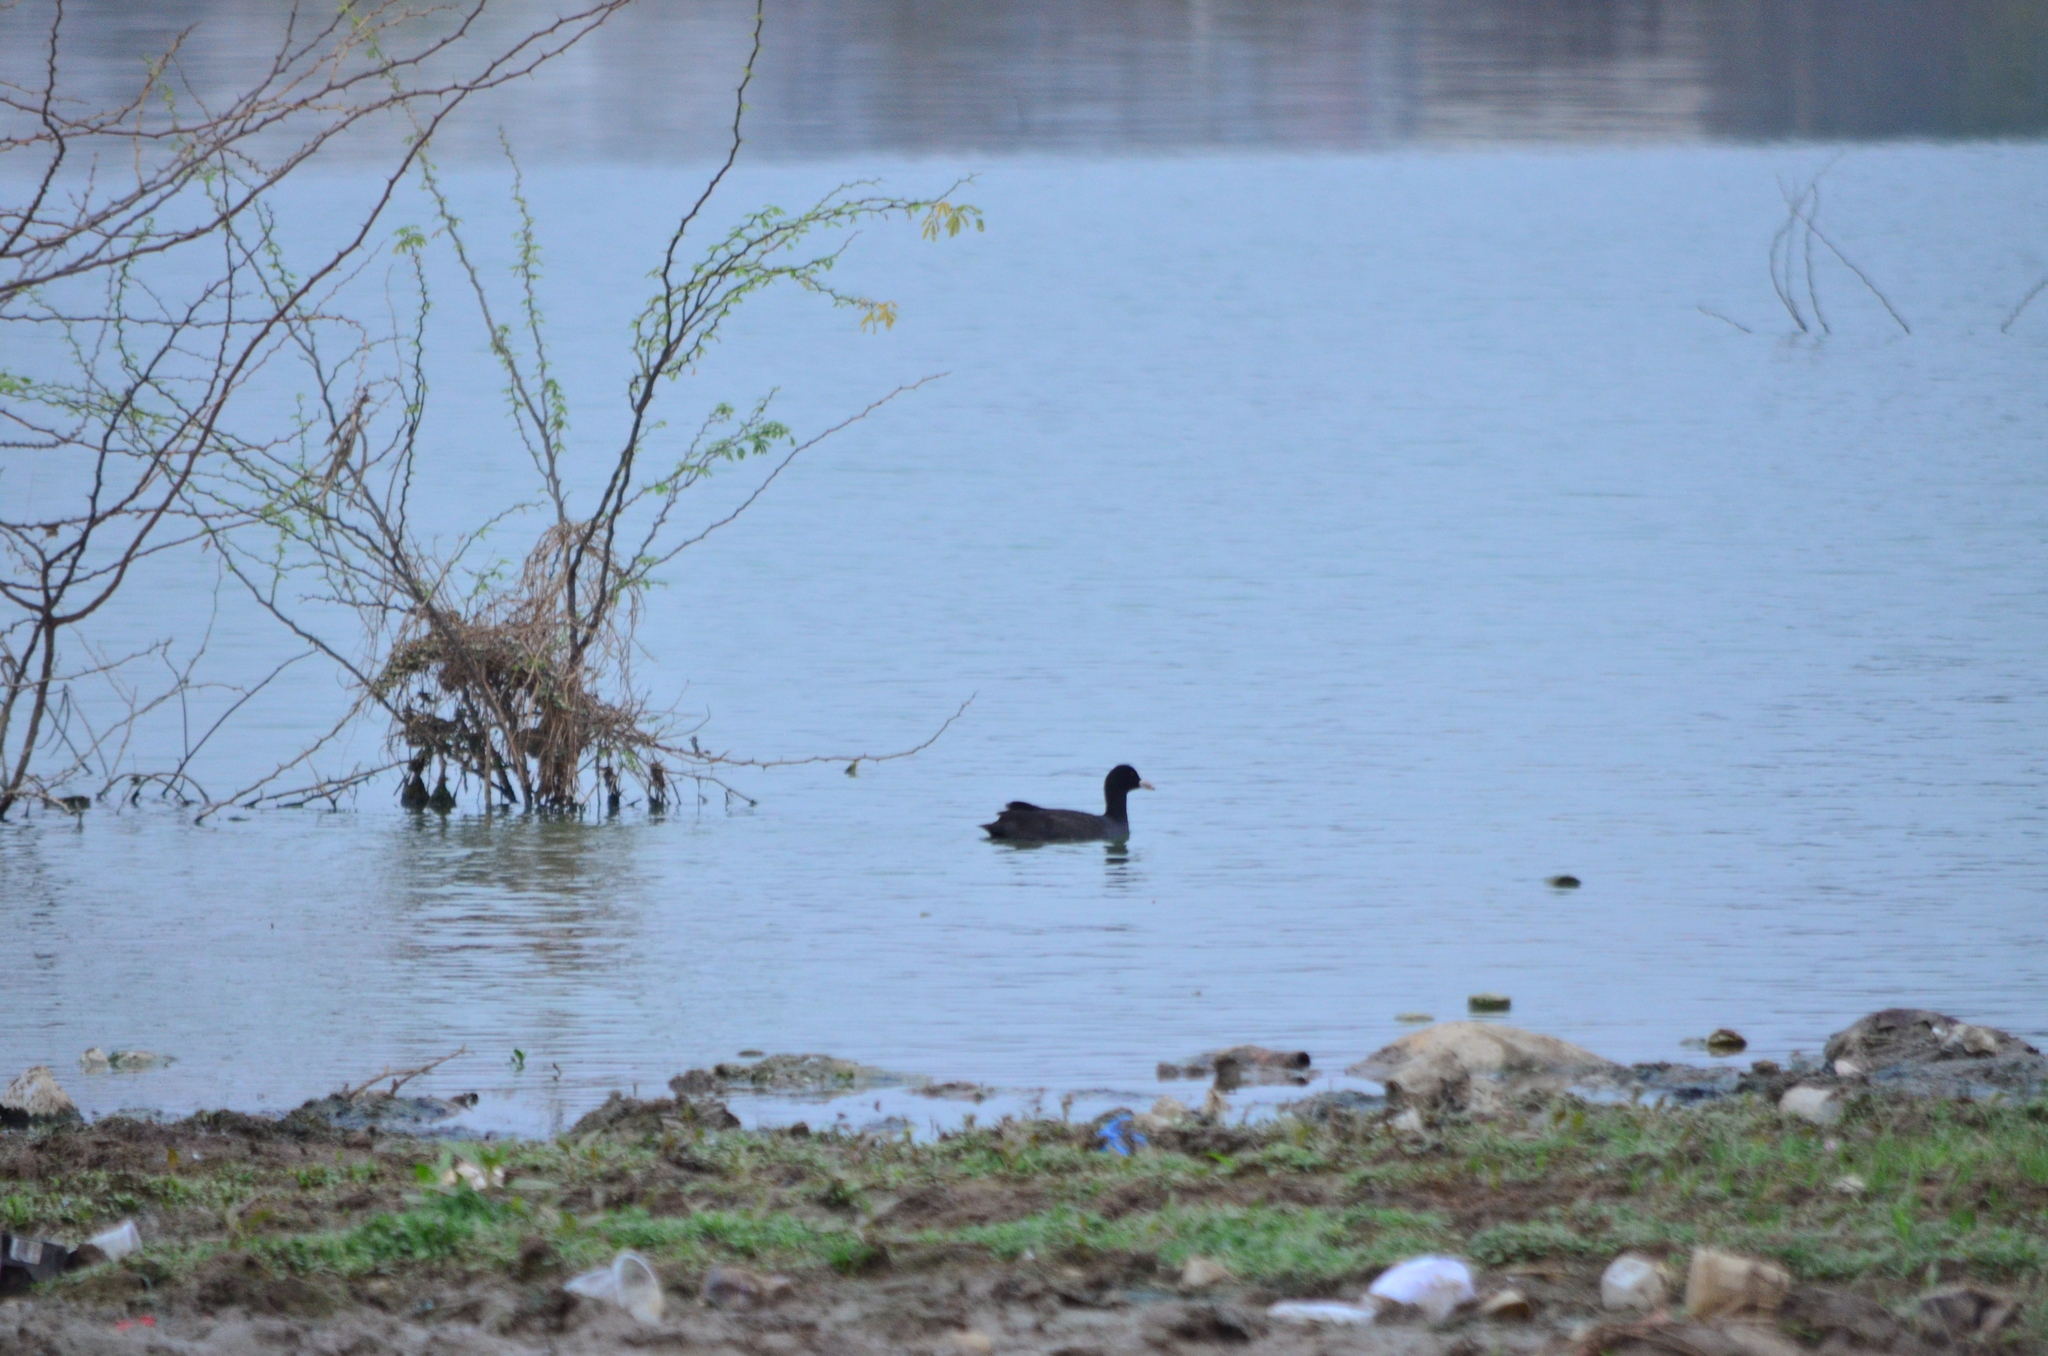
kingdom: Animalia
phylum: Chordata
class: Aves
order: Gruiformes
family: Rallidae
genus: Fulica
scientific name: Fulica atra
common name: Eurasian coot
